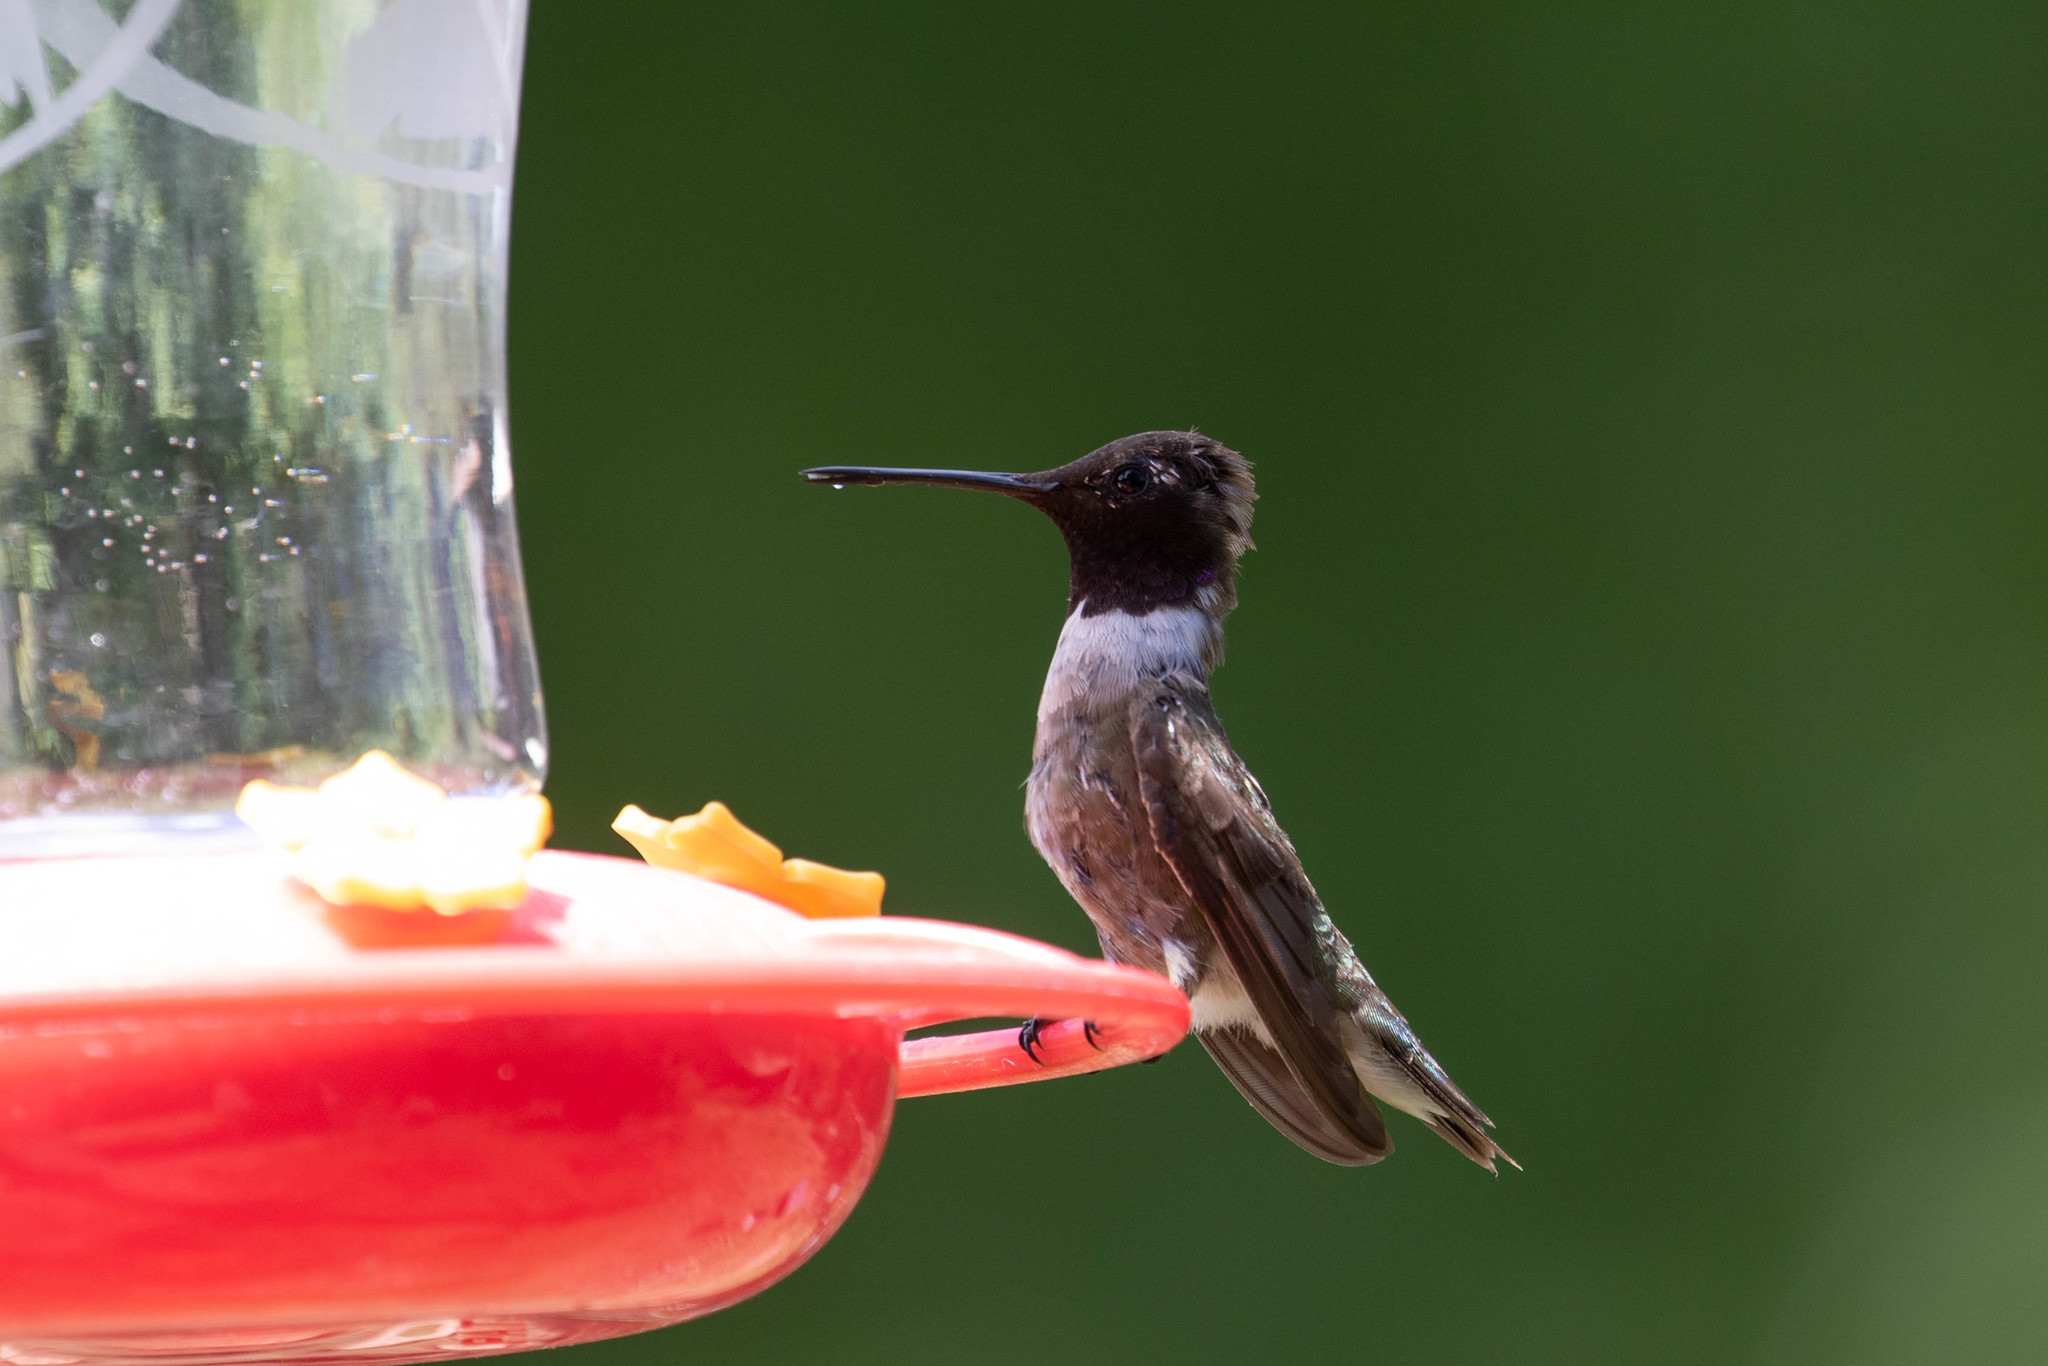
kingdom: Animalia
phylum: Chordata
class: Aves
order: Apodiformes
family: Trochilidae
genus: Archilochus
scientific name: Archilochus alexandri
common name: Black-chinned hummingbird
